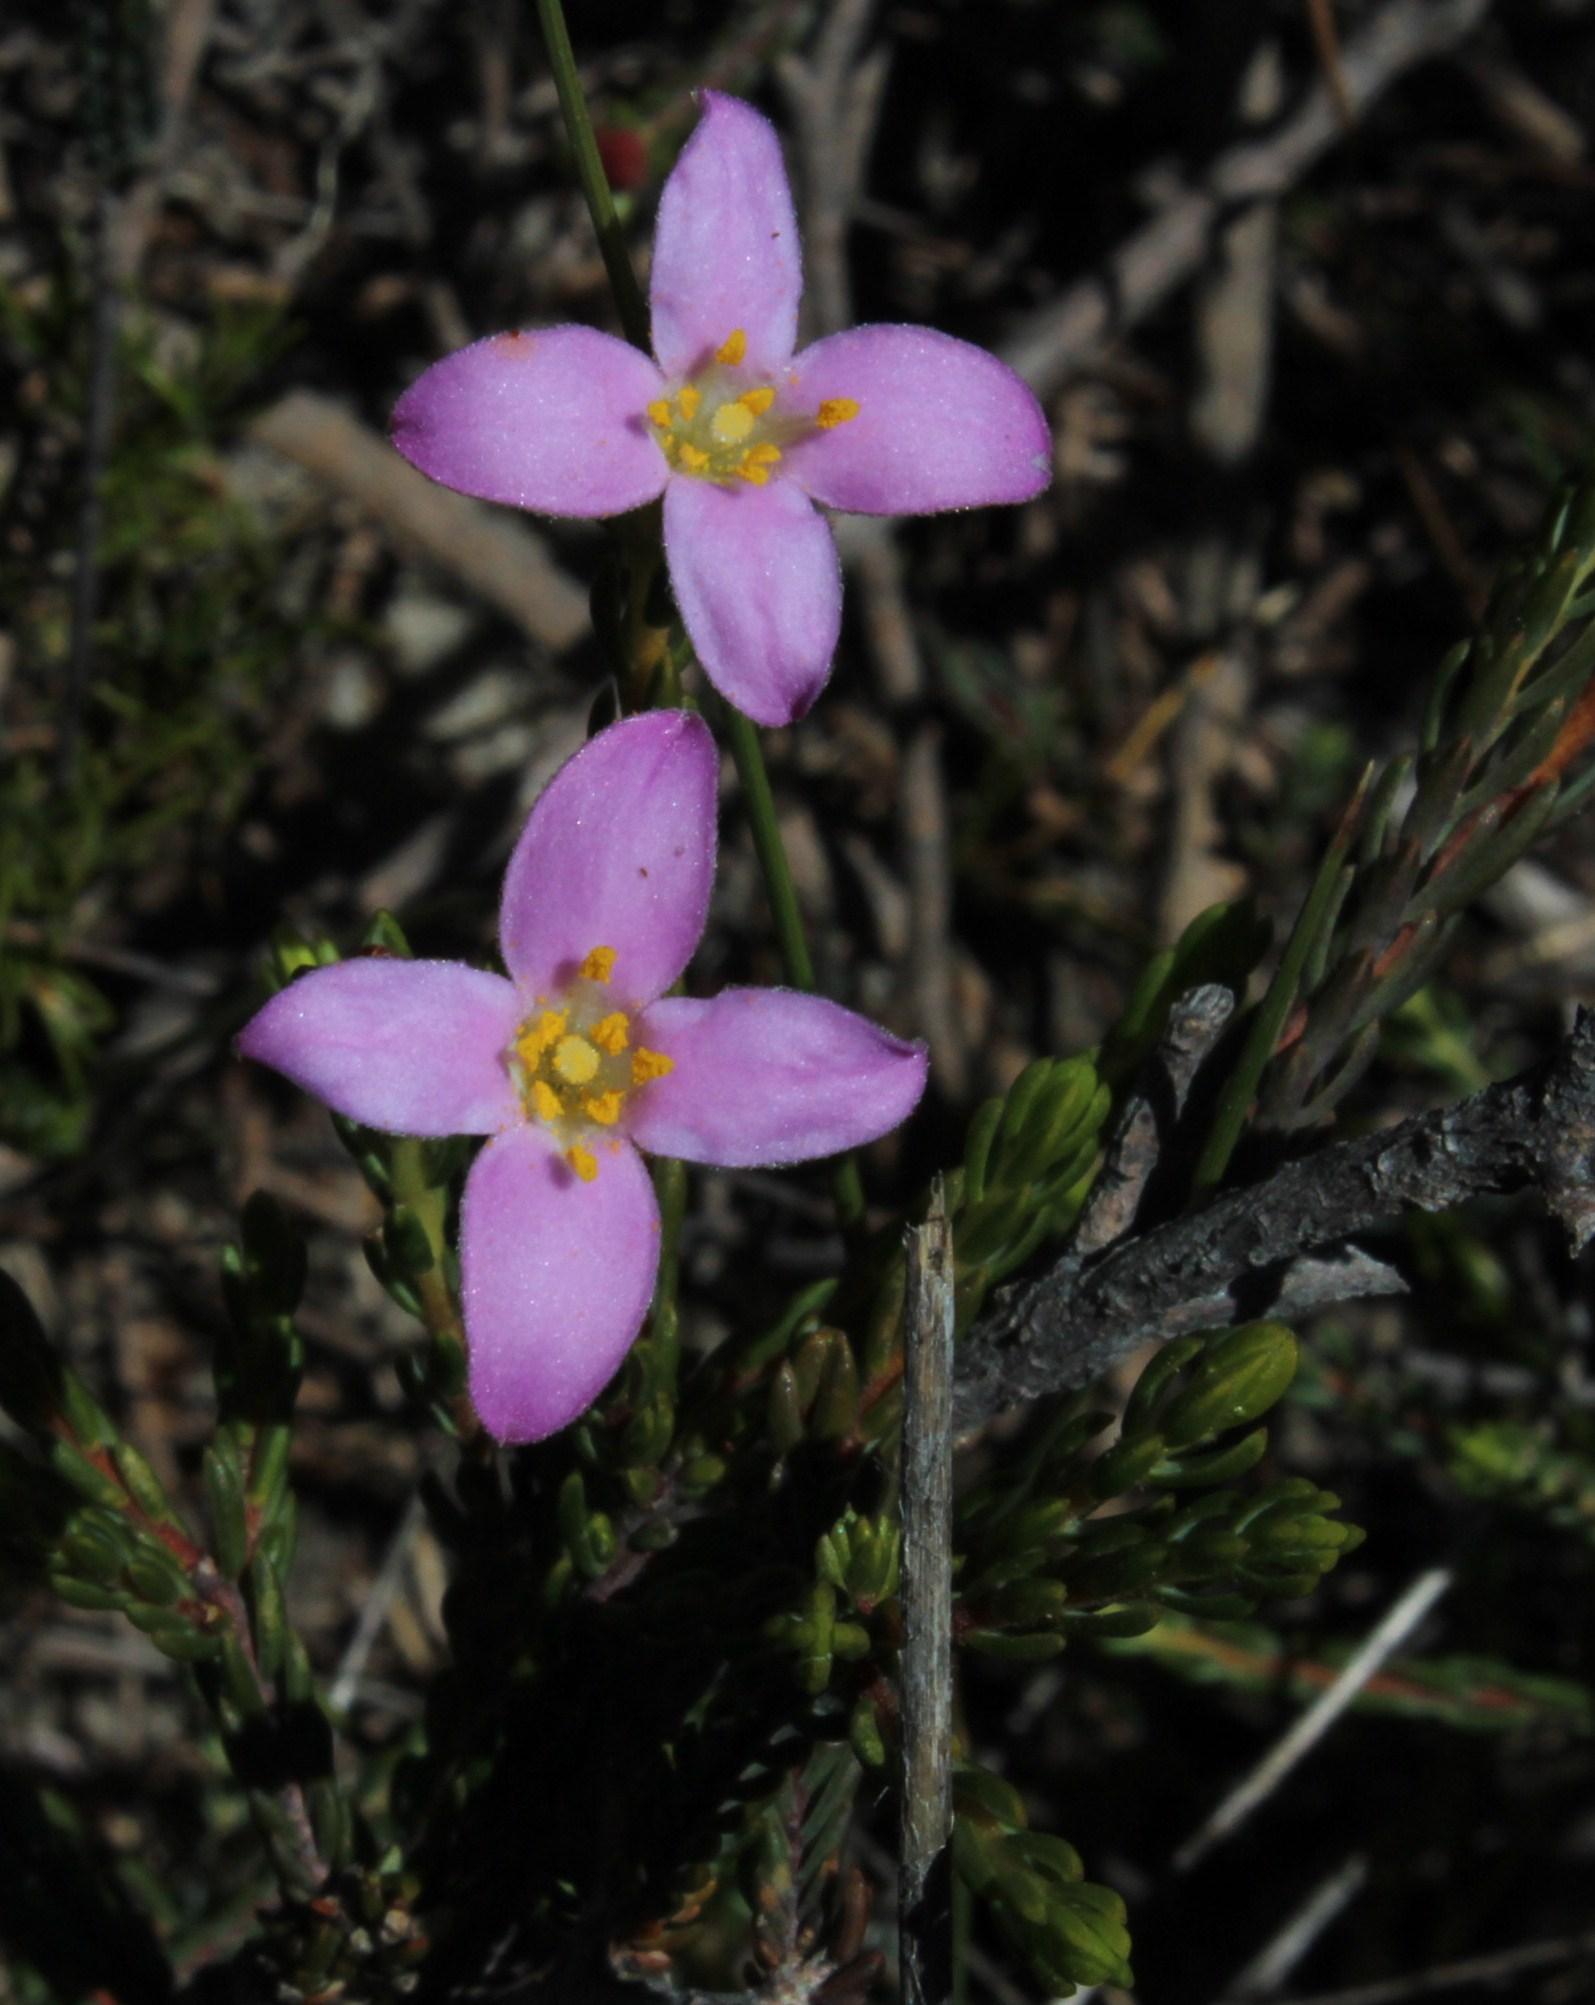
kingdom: Plantae
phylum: Tracheophyta
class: Magnoliopsida
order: Malvales
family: Thymelaeaceae
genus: Lachnaea
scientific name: Lachnaea grandiflora
